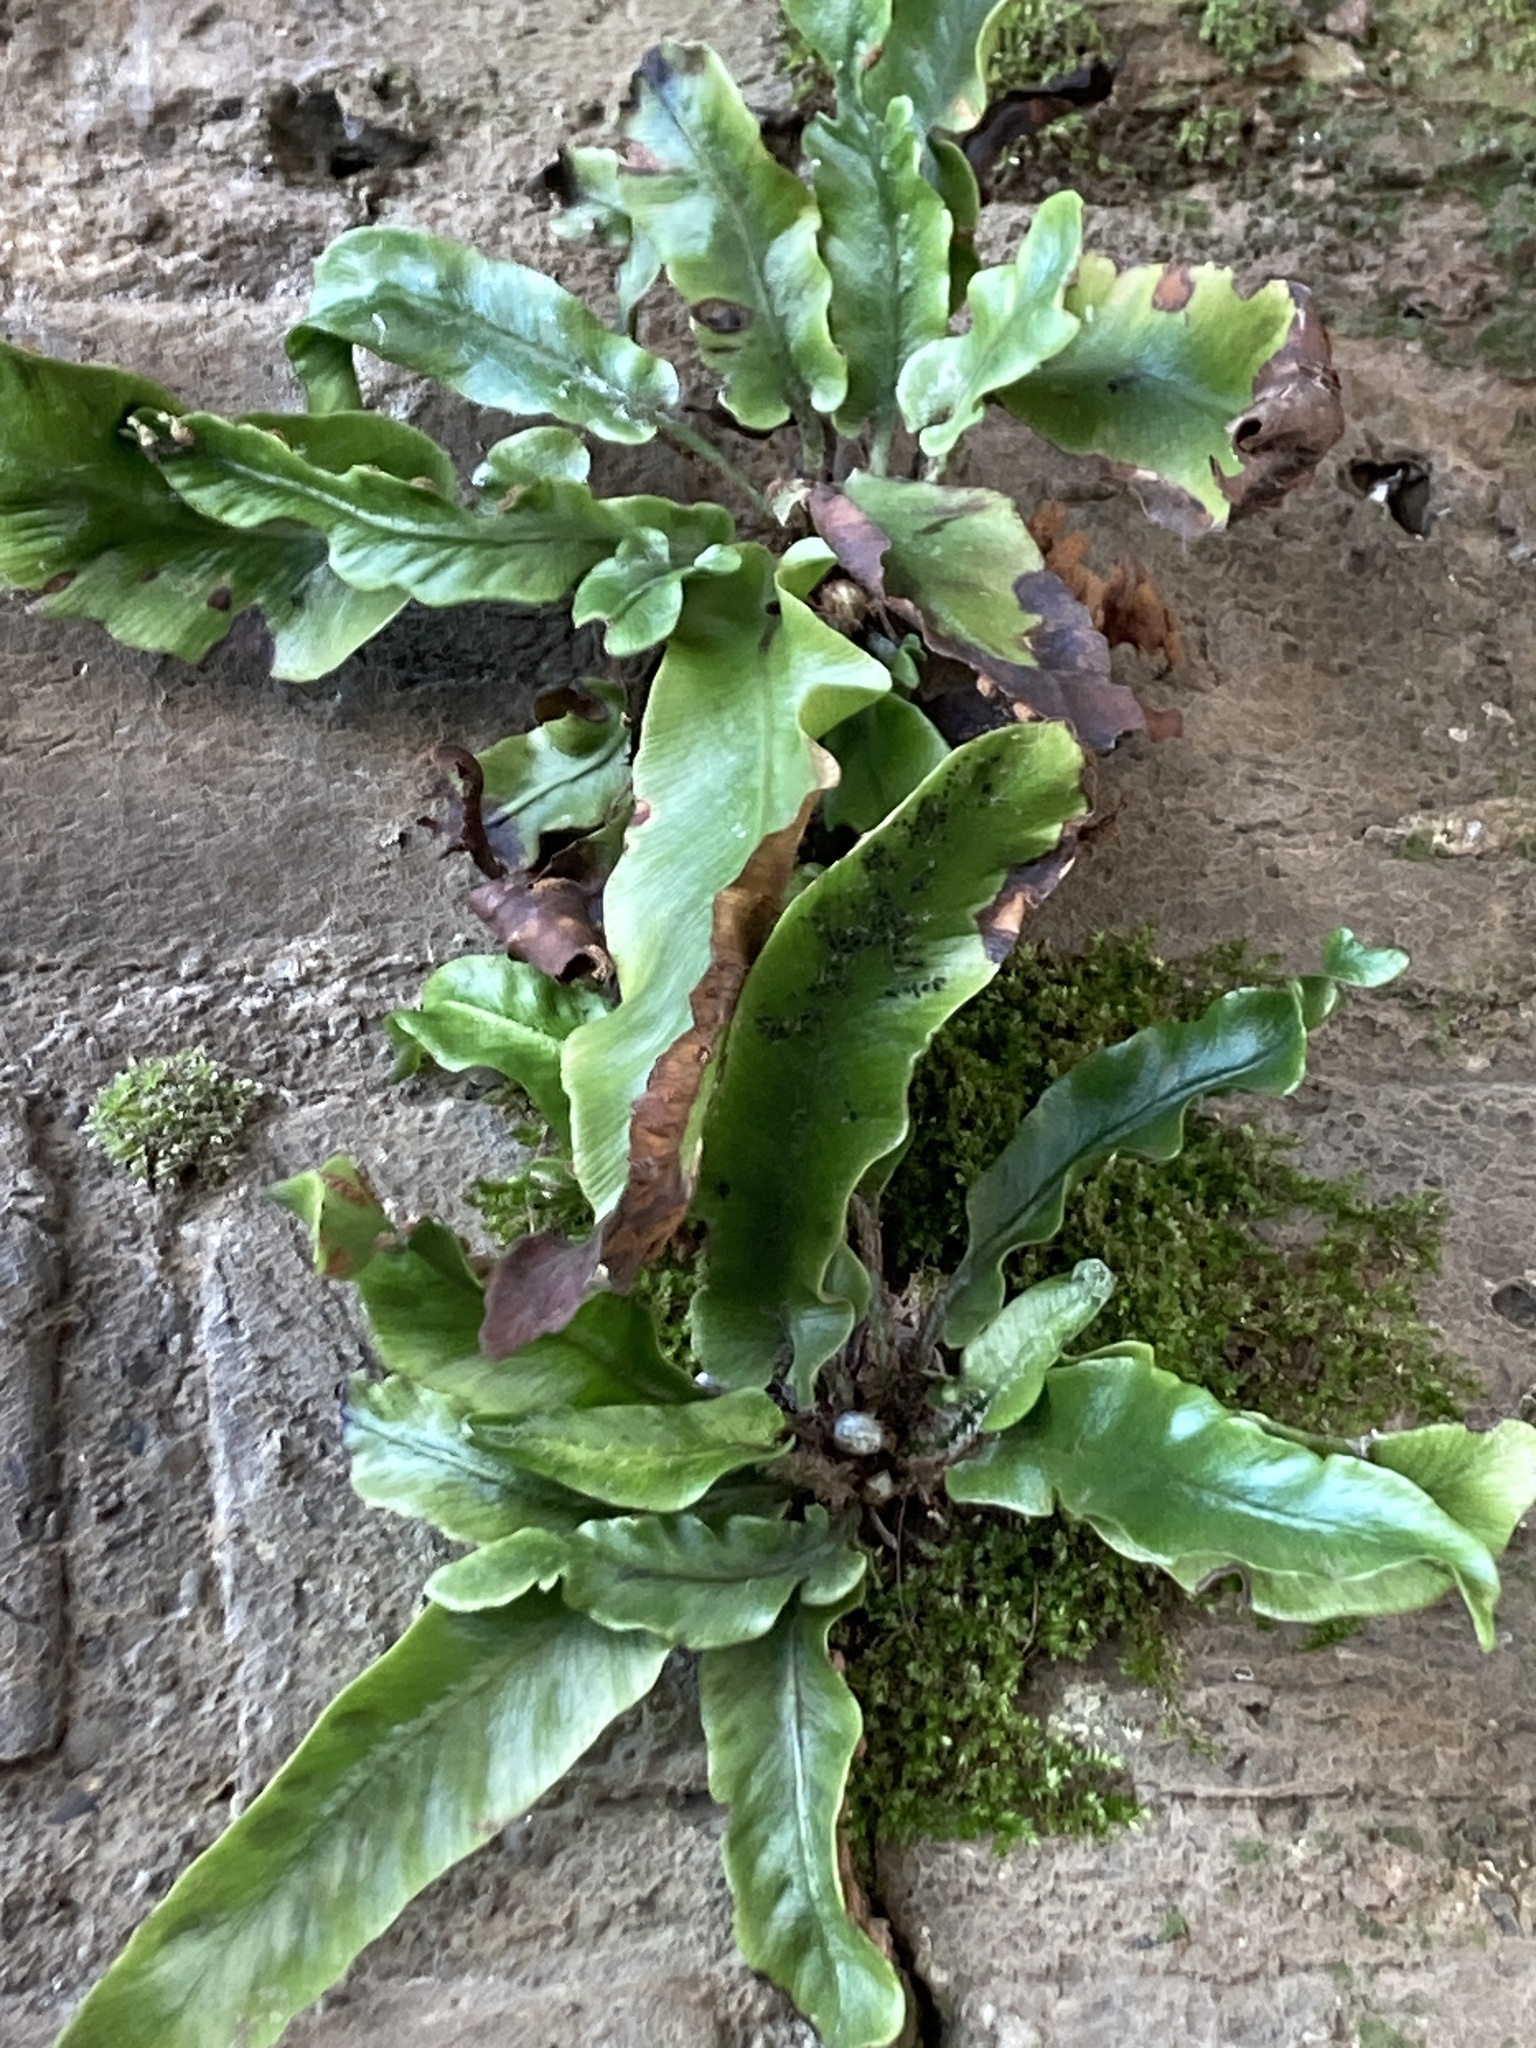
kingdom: Plantae
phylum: Tracheophyta
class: Polypodiopsida
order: Polypodiales
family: Aspleniaceae
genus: Asplenium
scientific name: Asplenium scolopendrium
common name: Hart's-tongue fern
